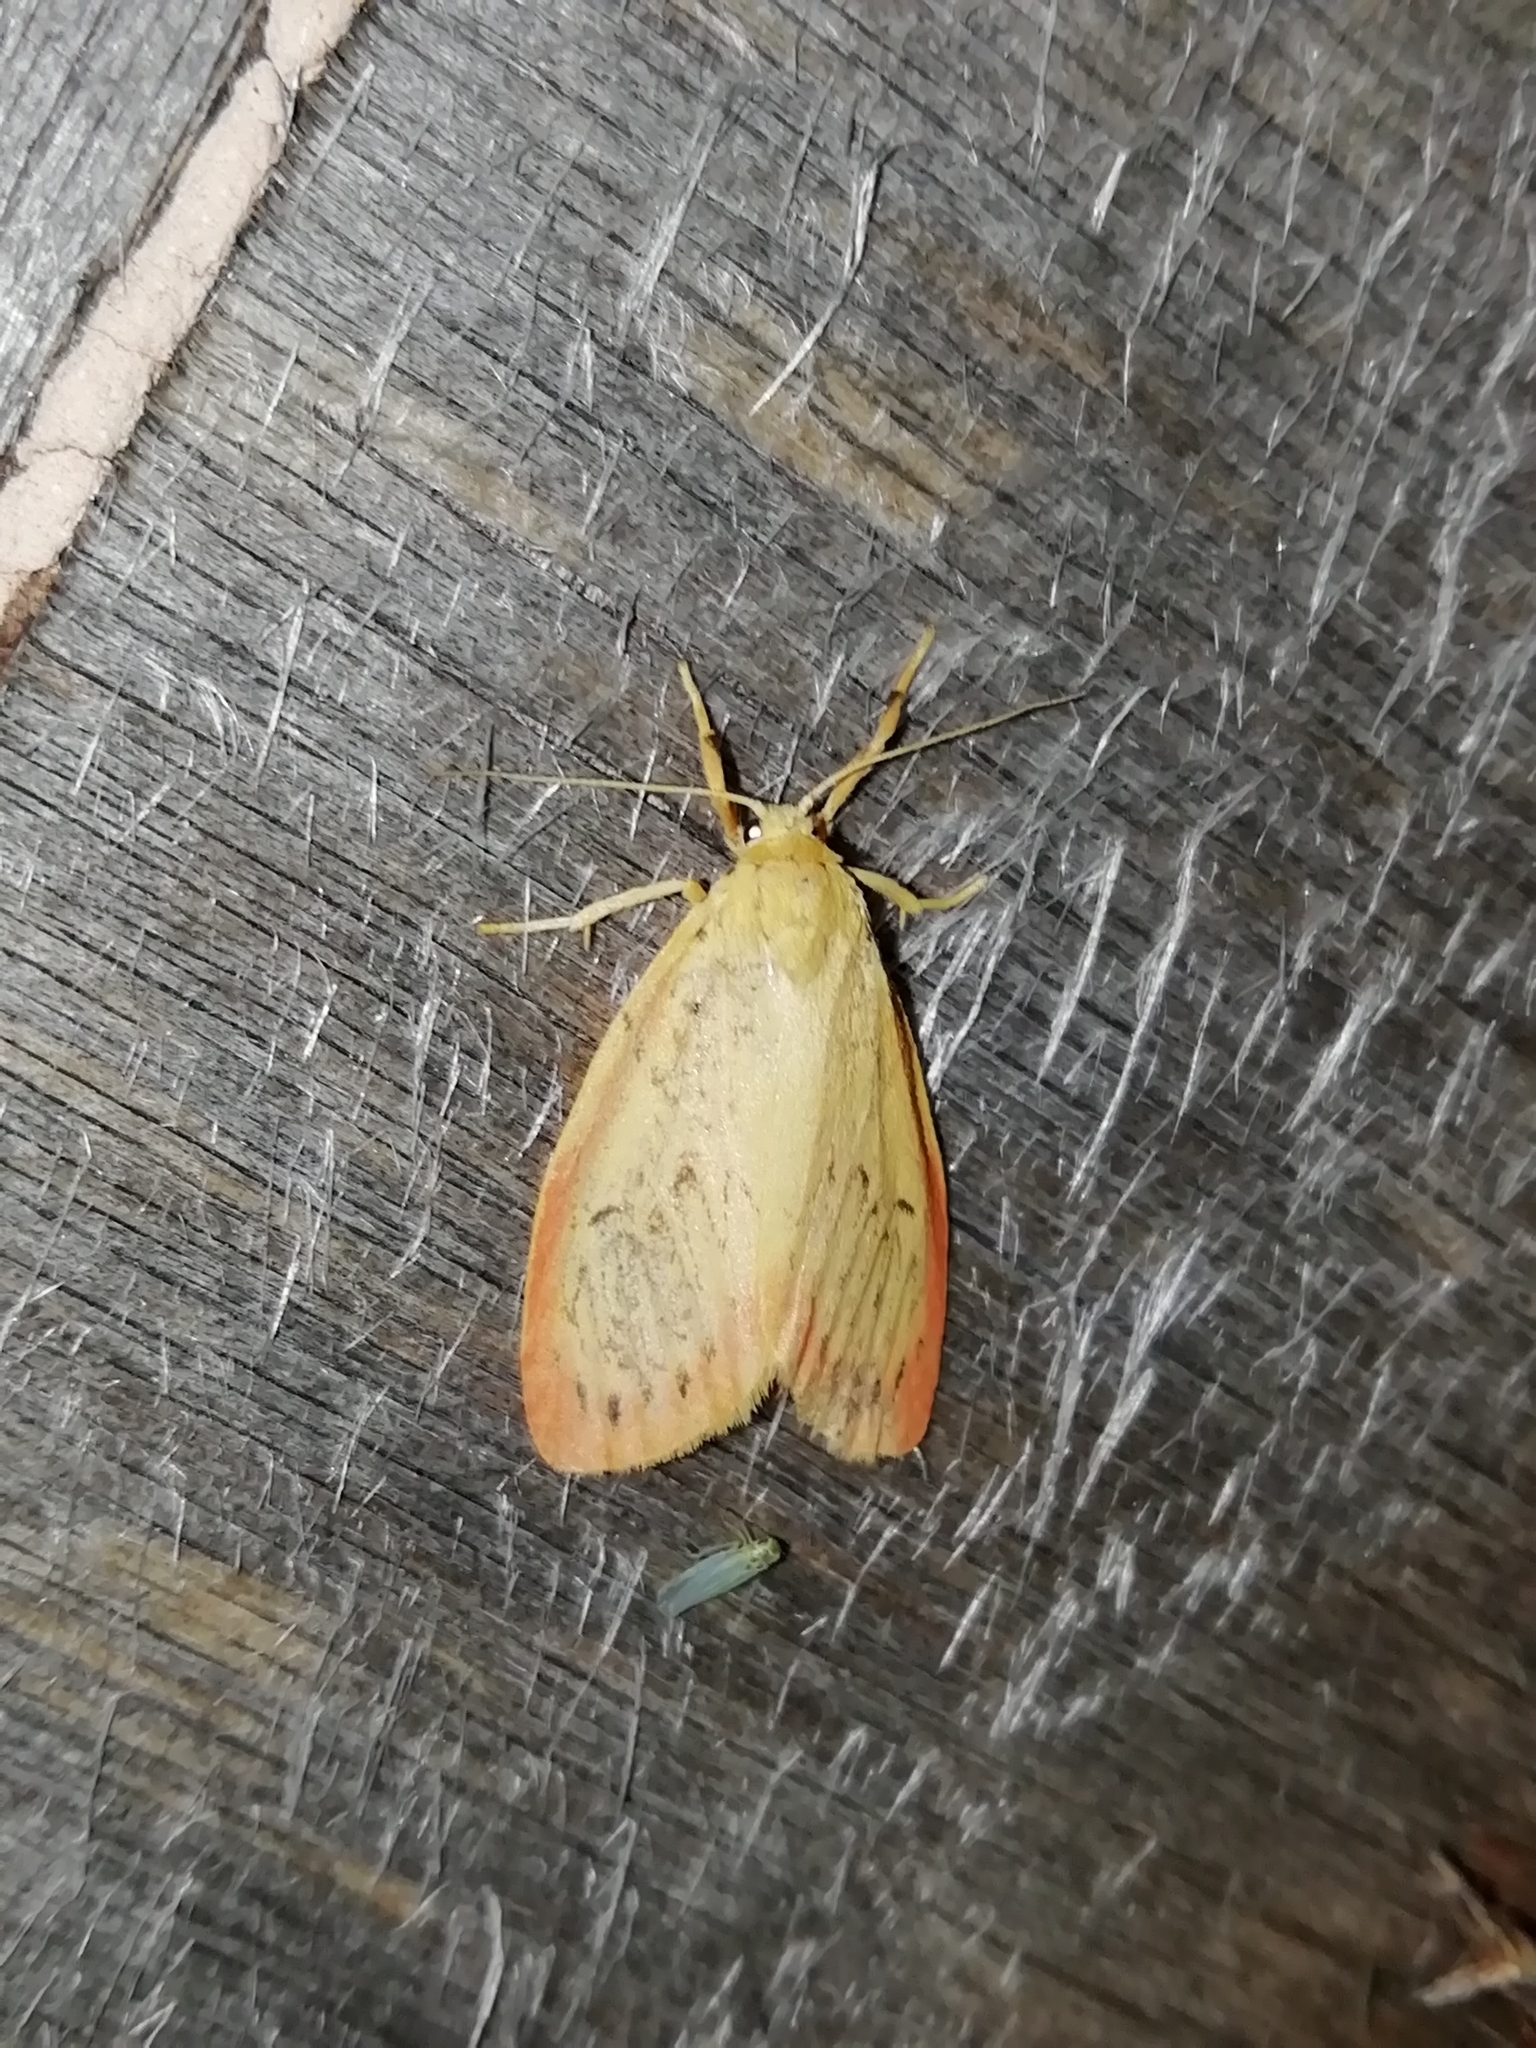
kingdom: Animalia
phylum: Arthropoda
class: Insecta
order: Lepidoptera
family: Erebidae
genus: Miltochrista
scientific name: Miltochrista miniata
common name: Rosy footman
